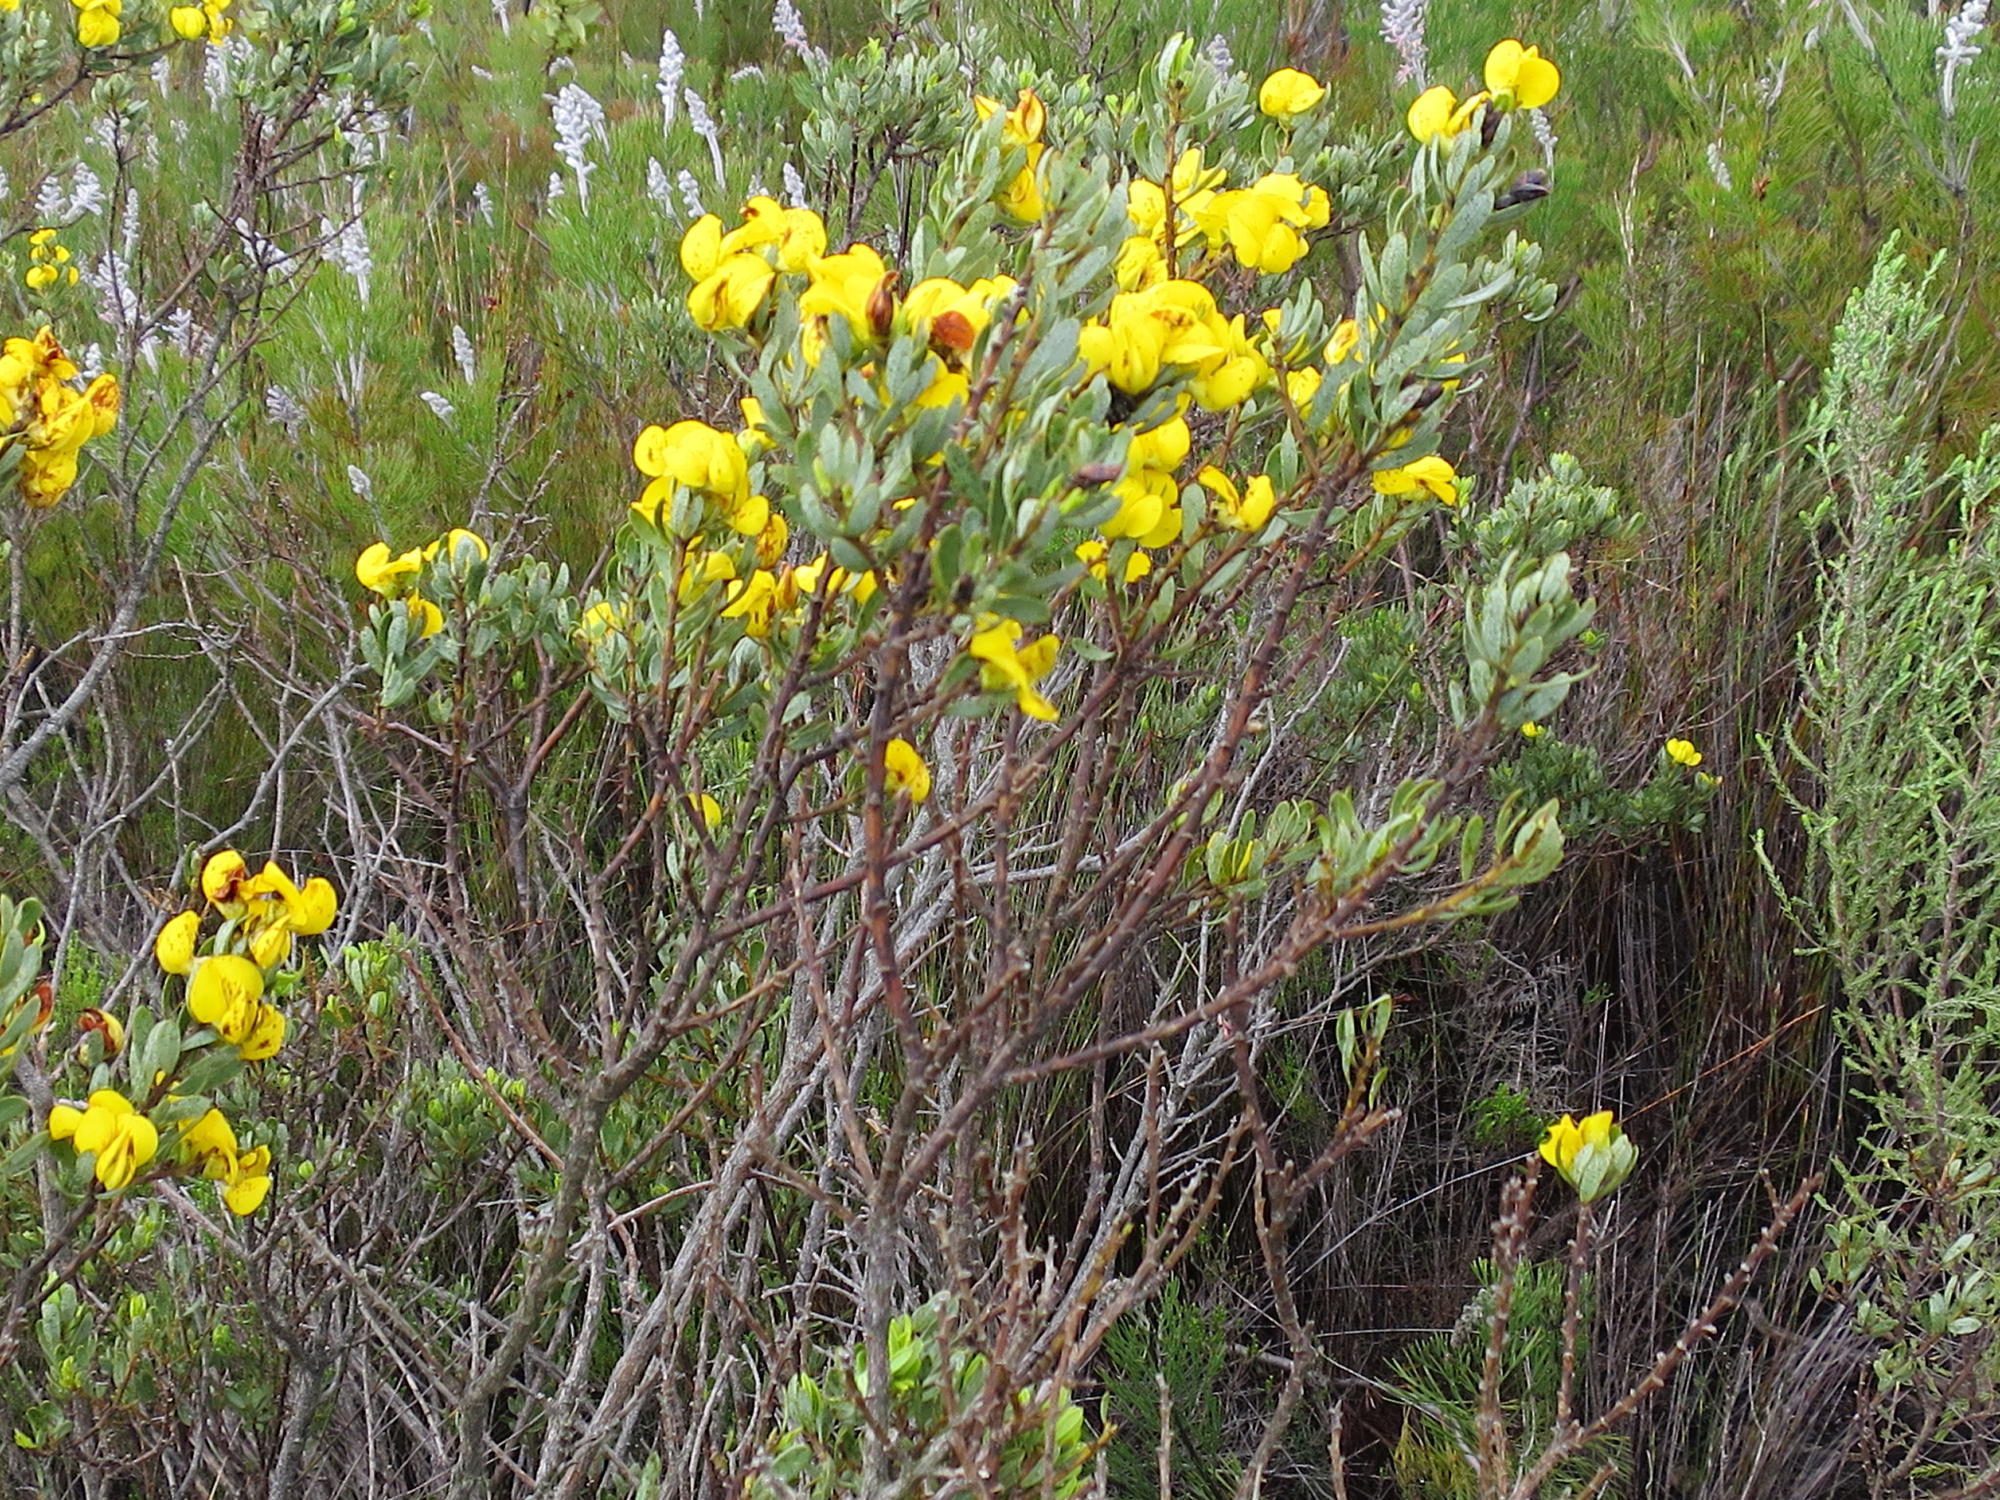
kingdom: Plantae
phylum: Tracheophyta
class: Magnoliopsida
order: Fabales
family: Fabaceae
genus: Cyclopia
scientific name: Cyclopia intermedia
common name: Mountain tea
